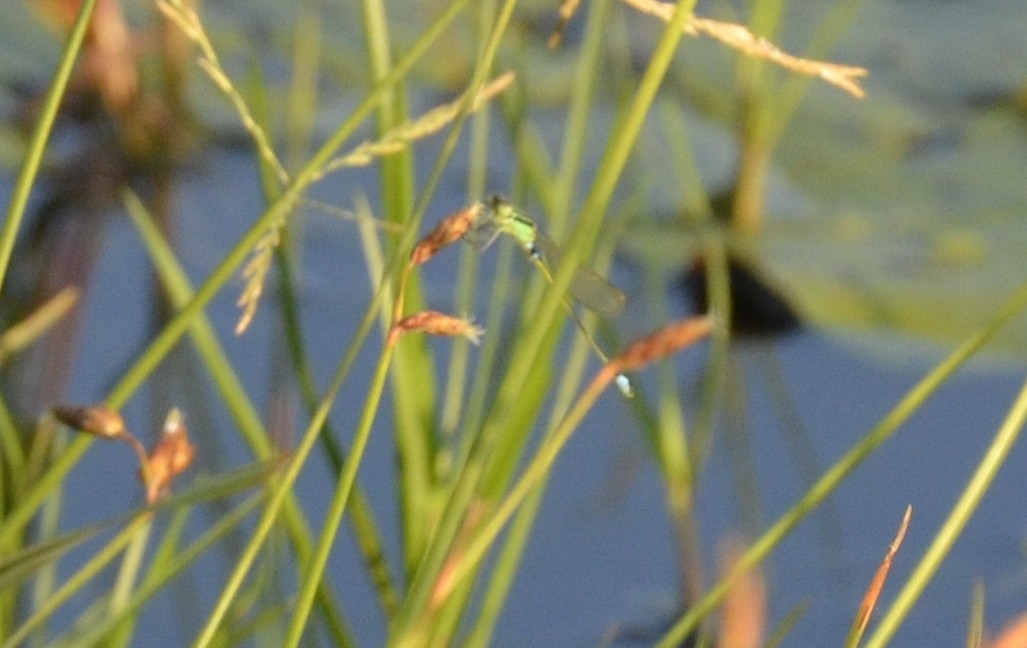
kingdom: Animalia
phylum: Arthropoda
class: Insecta
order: Odonata
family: Coenagrionidae
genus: Ischnura
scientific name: Ischnura senegalensis
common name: Tropical bluetail
